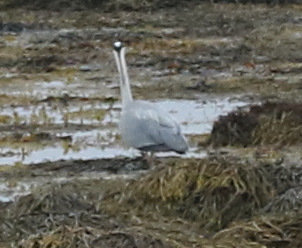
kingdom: Animalia
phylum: Chordata
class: Aves
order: Pelecaniformes
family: Ardeidae
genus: Ardea
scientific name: Ardea cinerea
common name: Grey heron
